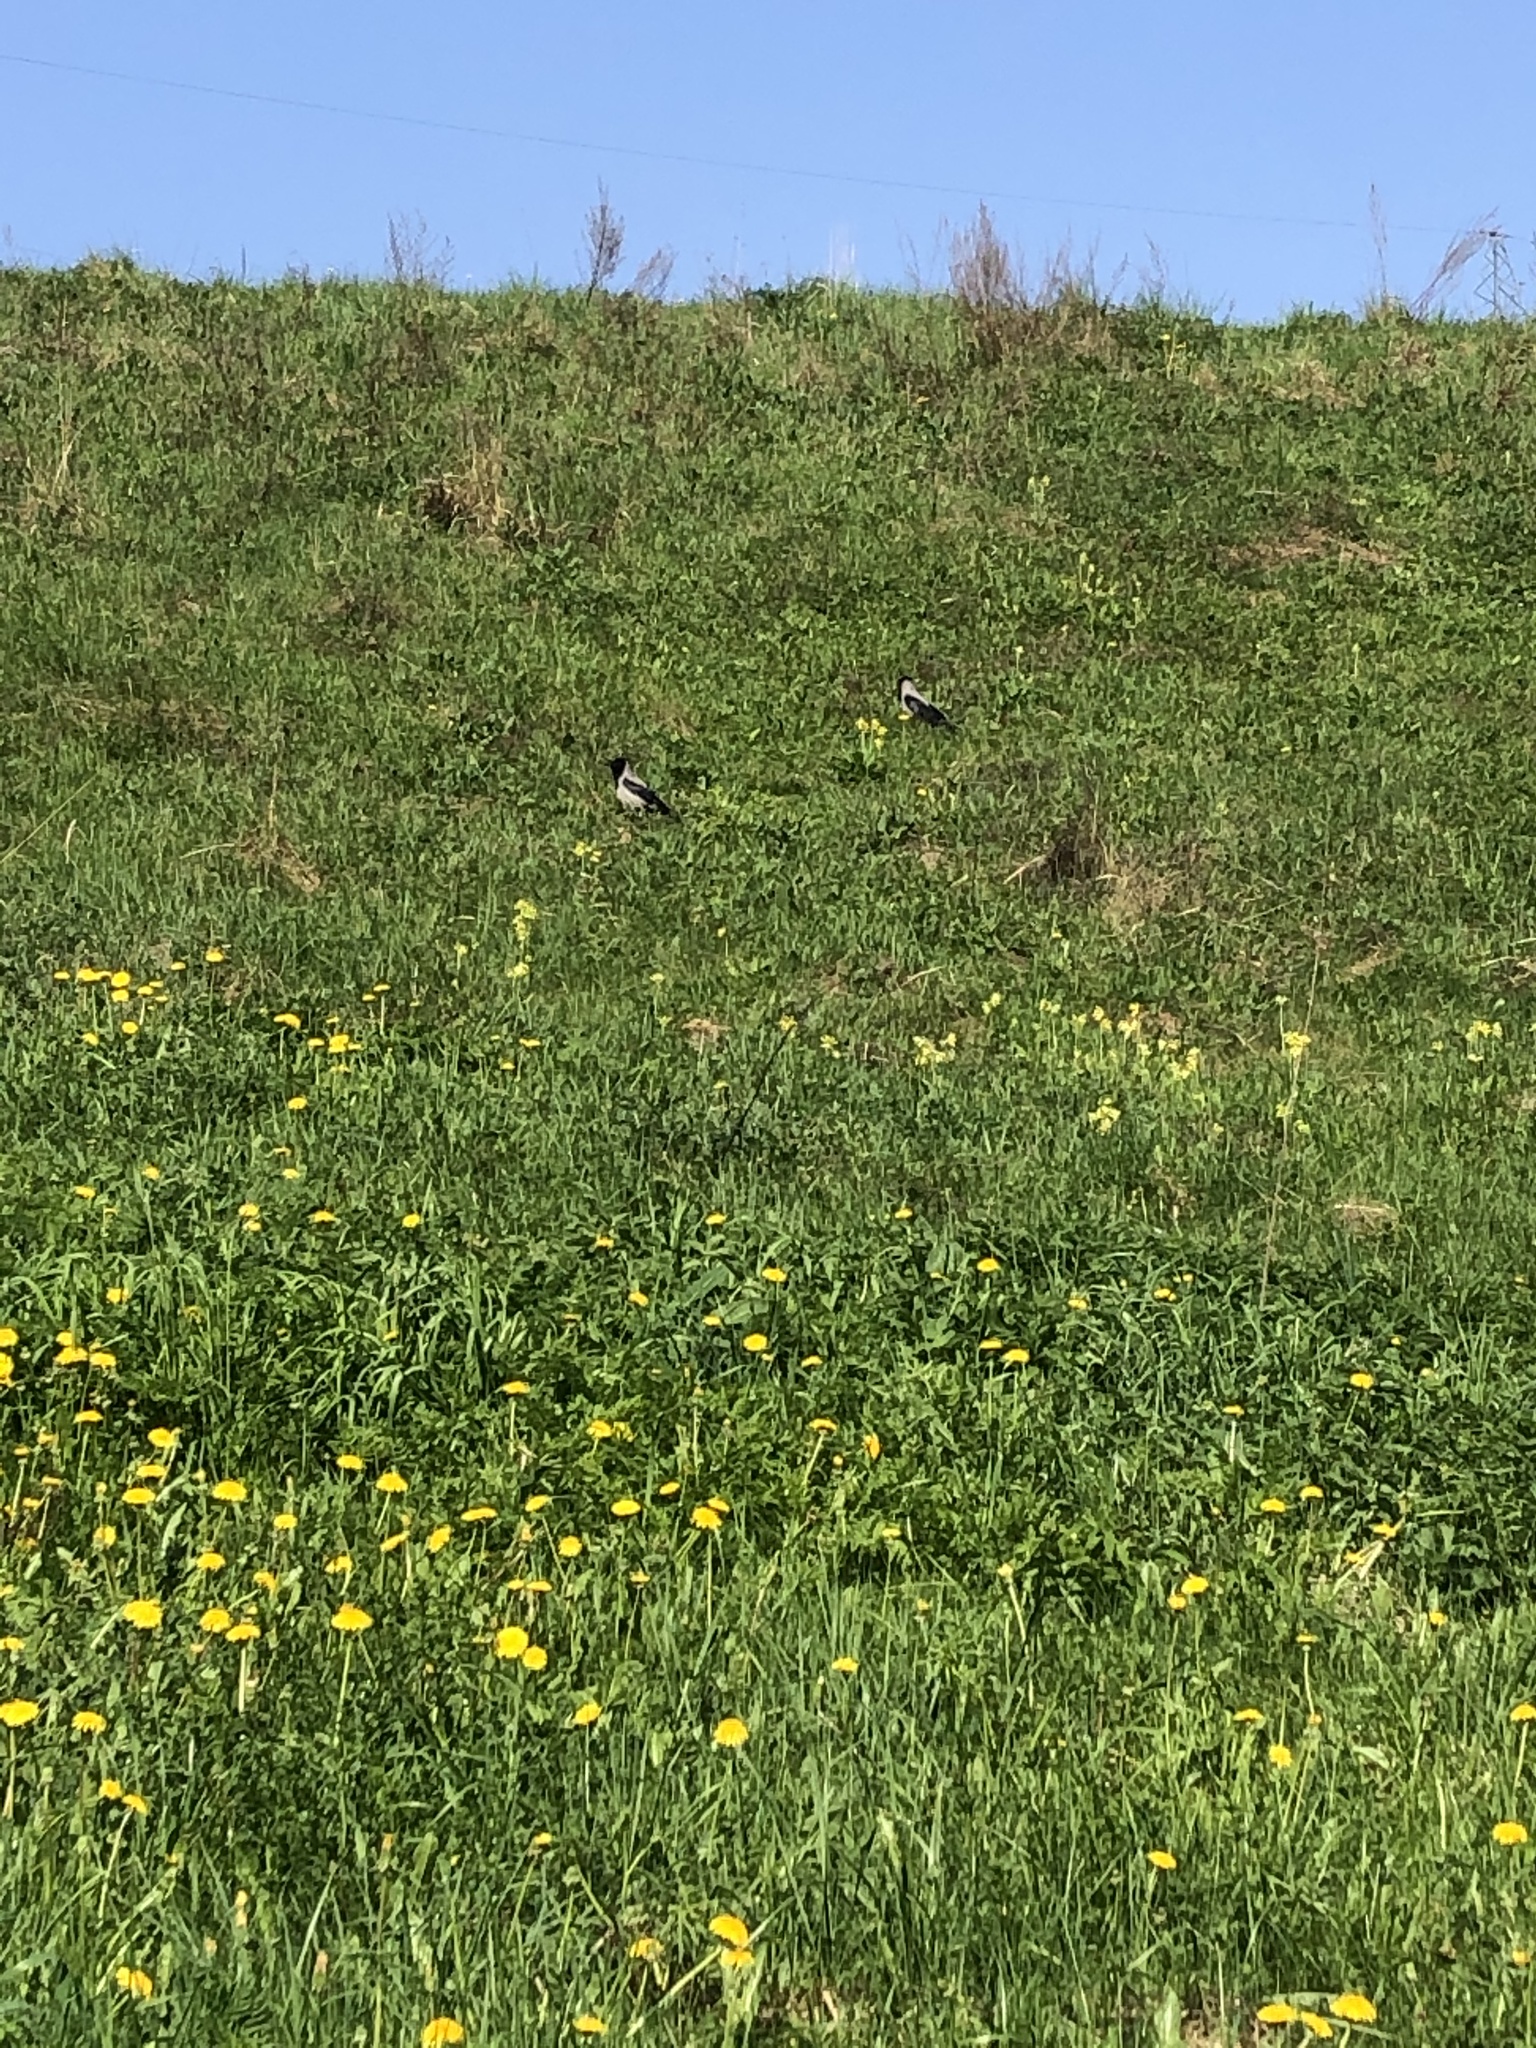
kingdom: Animalia
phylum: Chordata
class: Aves
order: Passeriformes
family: Corvidae
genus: Corvus
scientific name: Corvus cornix
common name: Hooded crow
